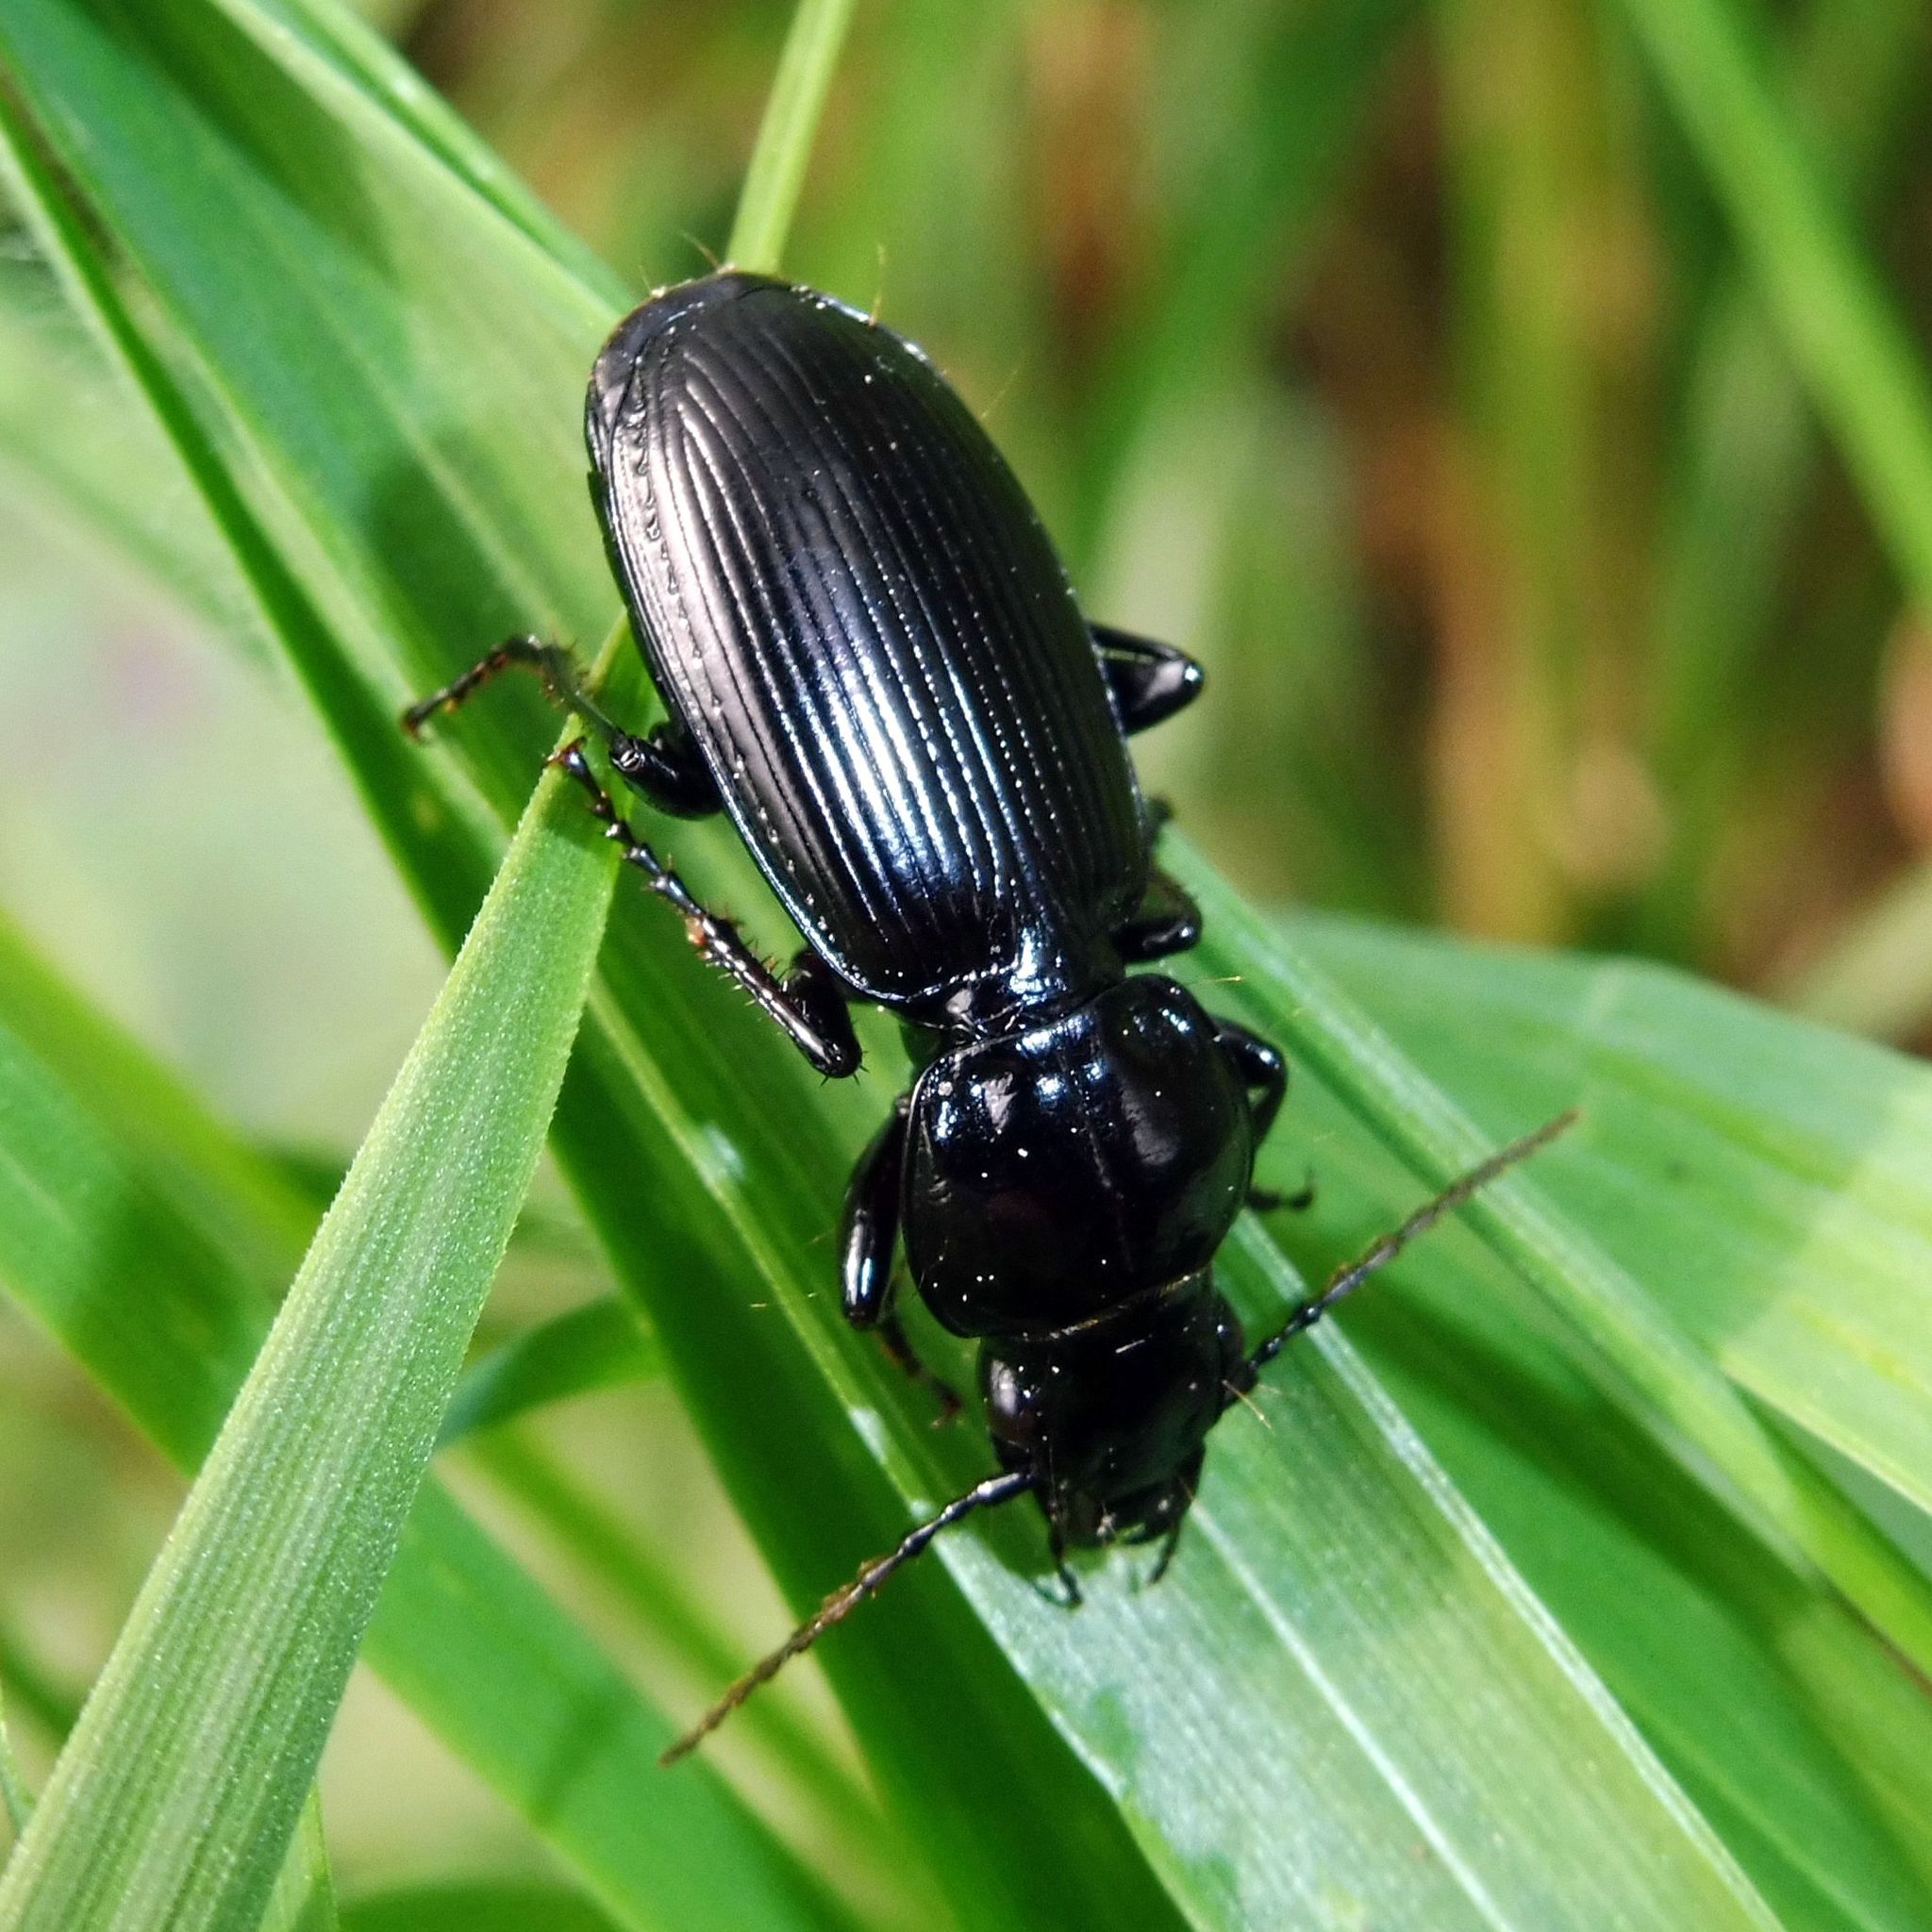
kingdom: Animalia
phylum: Arthropoda
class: Insecta
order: Coleoptera
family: Carabidae
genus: Pterostichus
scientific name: Pterostichus madidus
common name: Black clock
